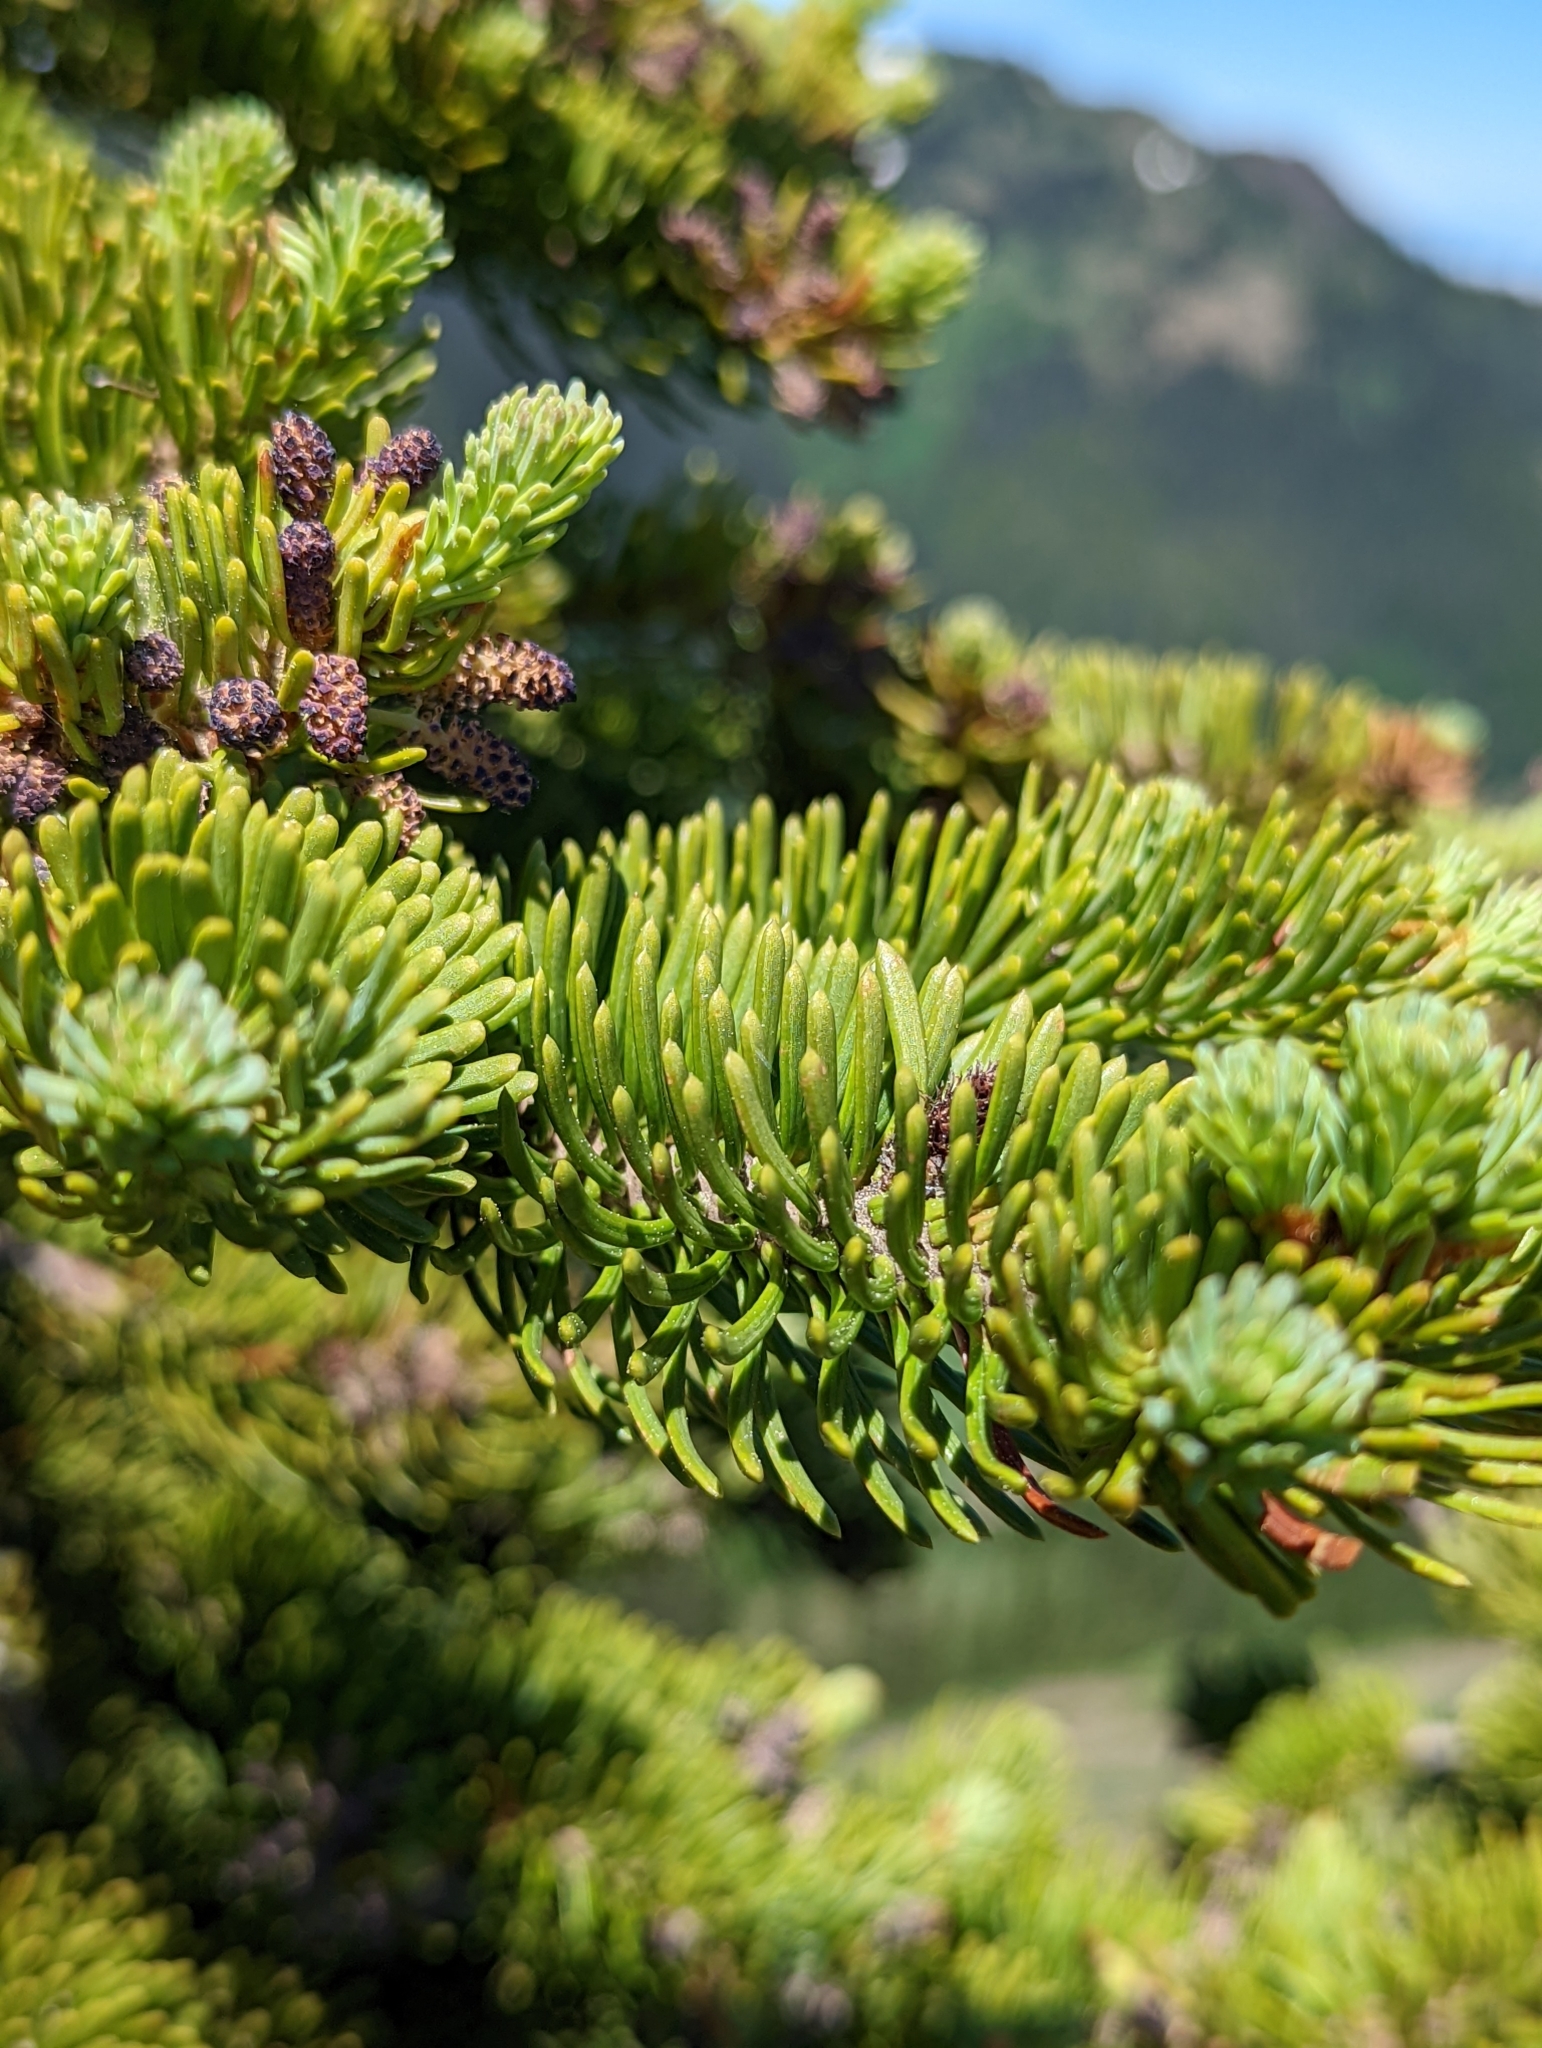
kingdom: Plantae
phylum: Tracheophyta
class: Pinopsida
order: Pinales
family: Pinaceae
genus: Abies
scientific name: Abies lasiocarpa
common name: Subalpine fir
